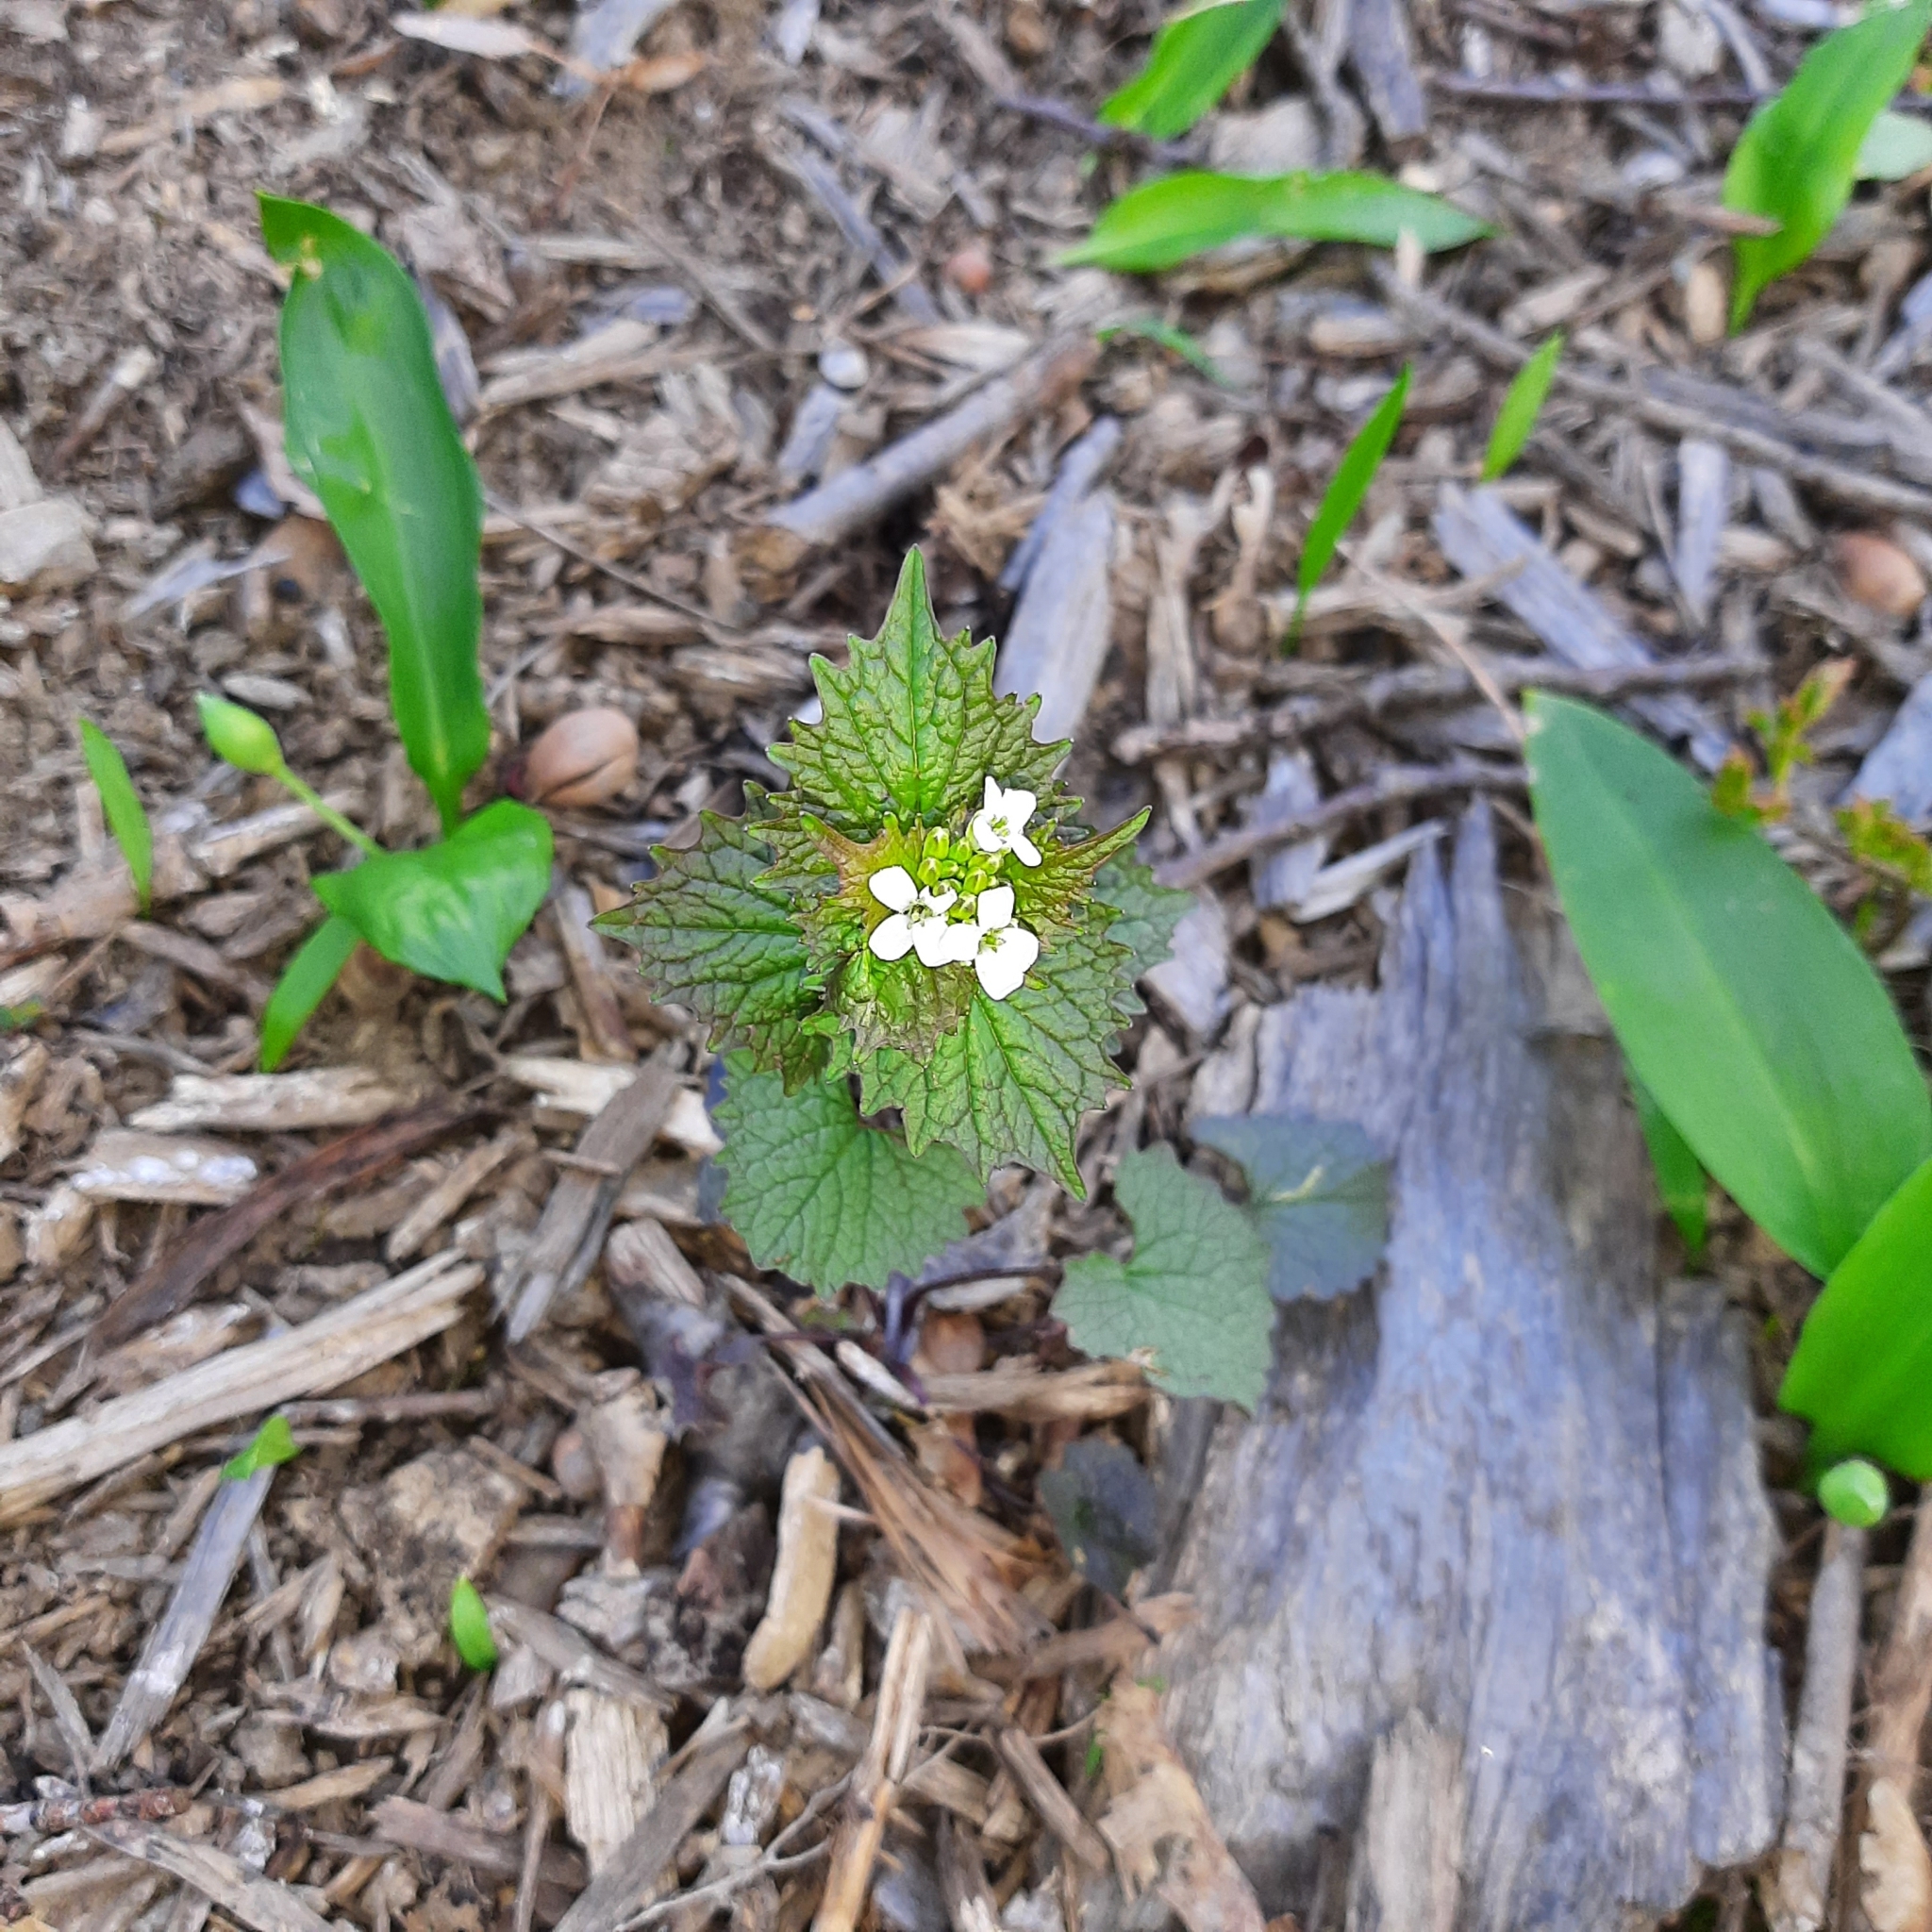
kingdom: Plantae
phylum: Tracheophyta
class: Magnoliopsida
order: Brassicales
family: Brassicaceae
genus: Alliaria
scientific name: Alliaria petiolata
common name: Garlic mustard
